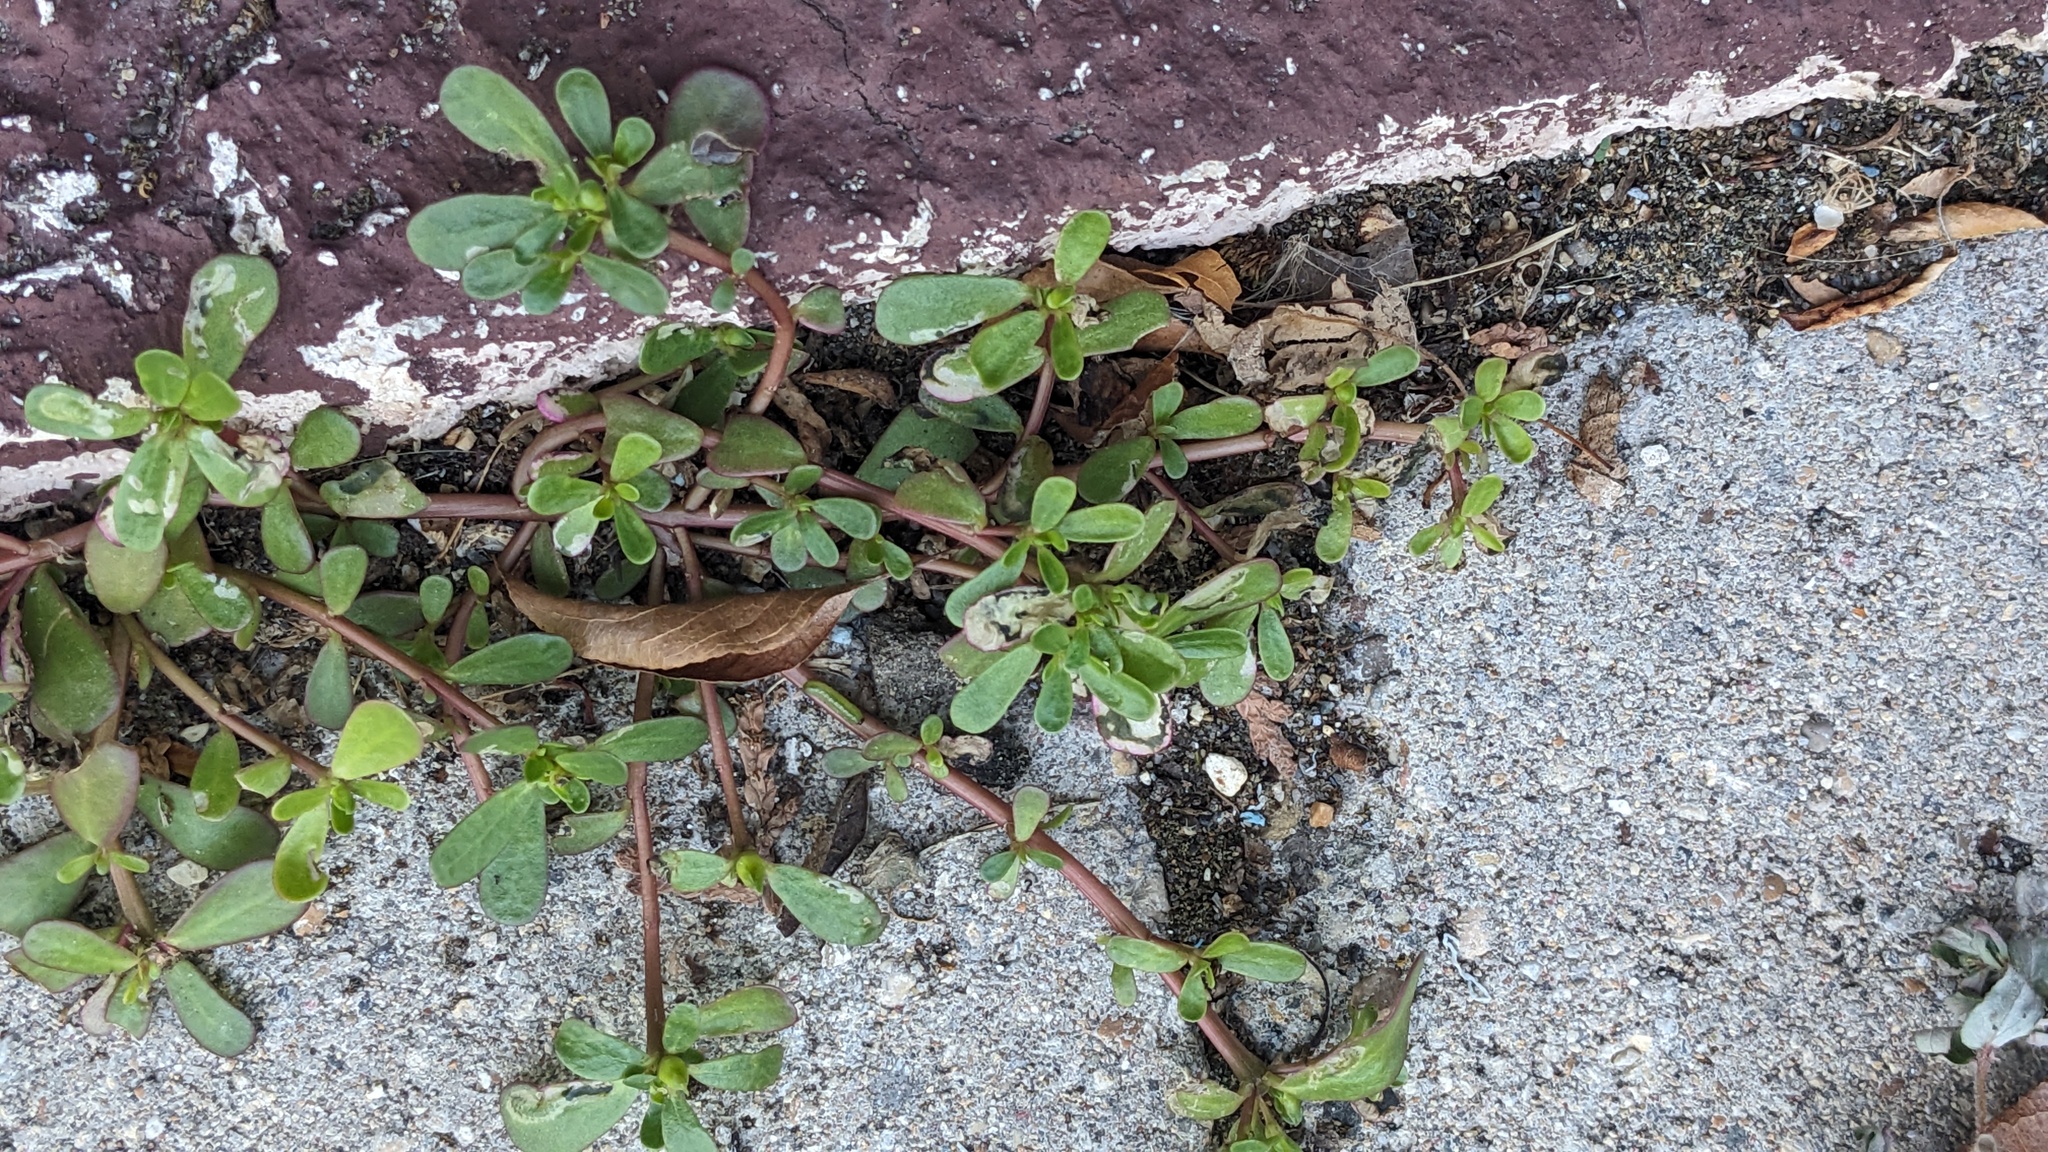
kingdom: Plantae
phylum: Tracheophyta
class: Magnoliopsida
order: Caryophyllales
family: Portulacaceae
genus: Portulaca
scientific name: Portulaca oleracea
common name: Common purslane
